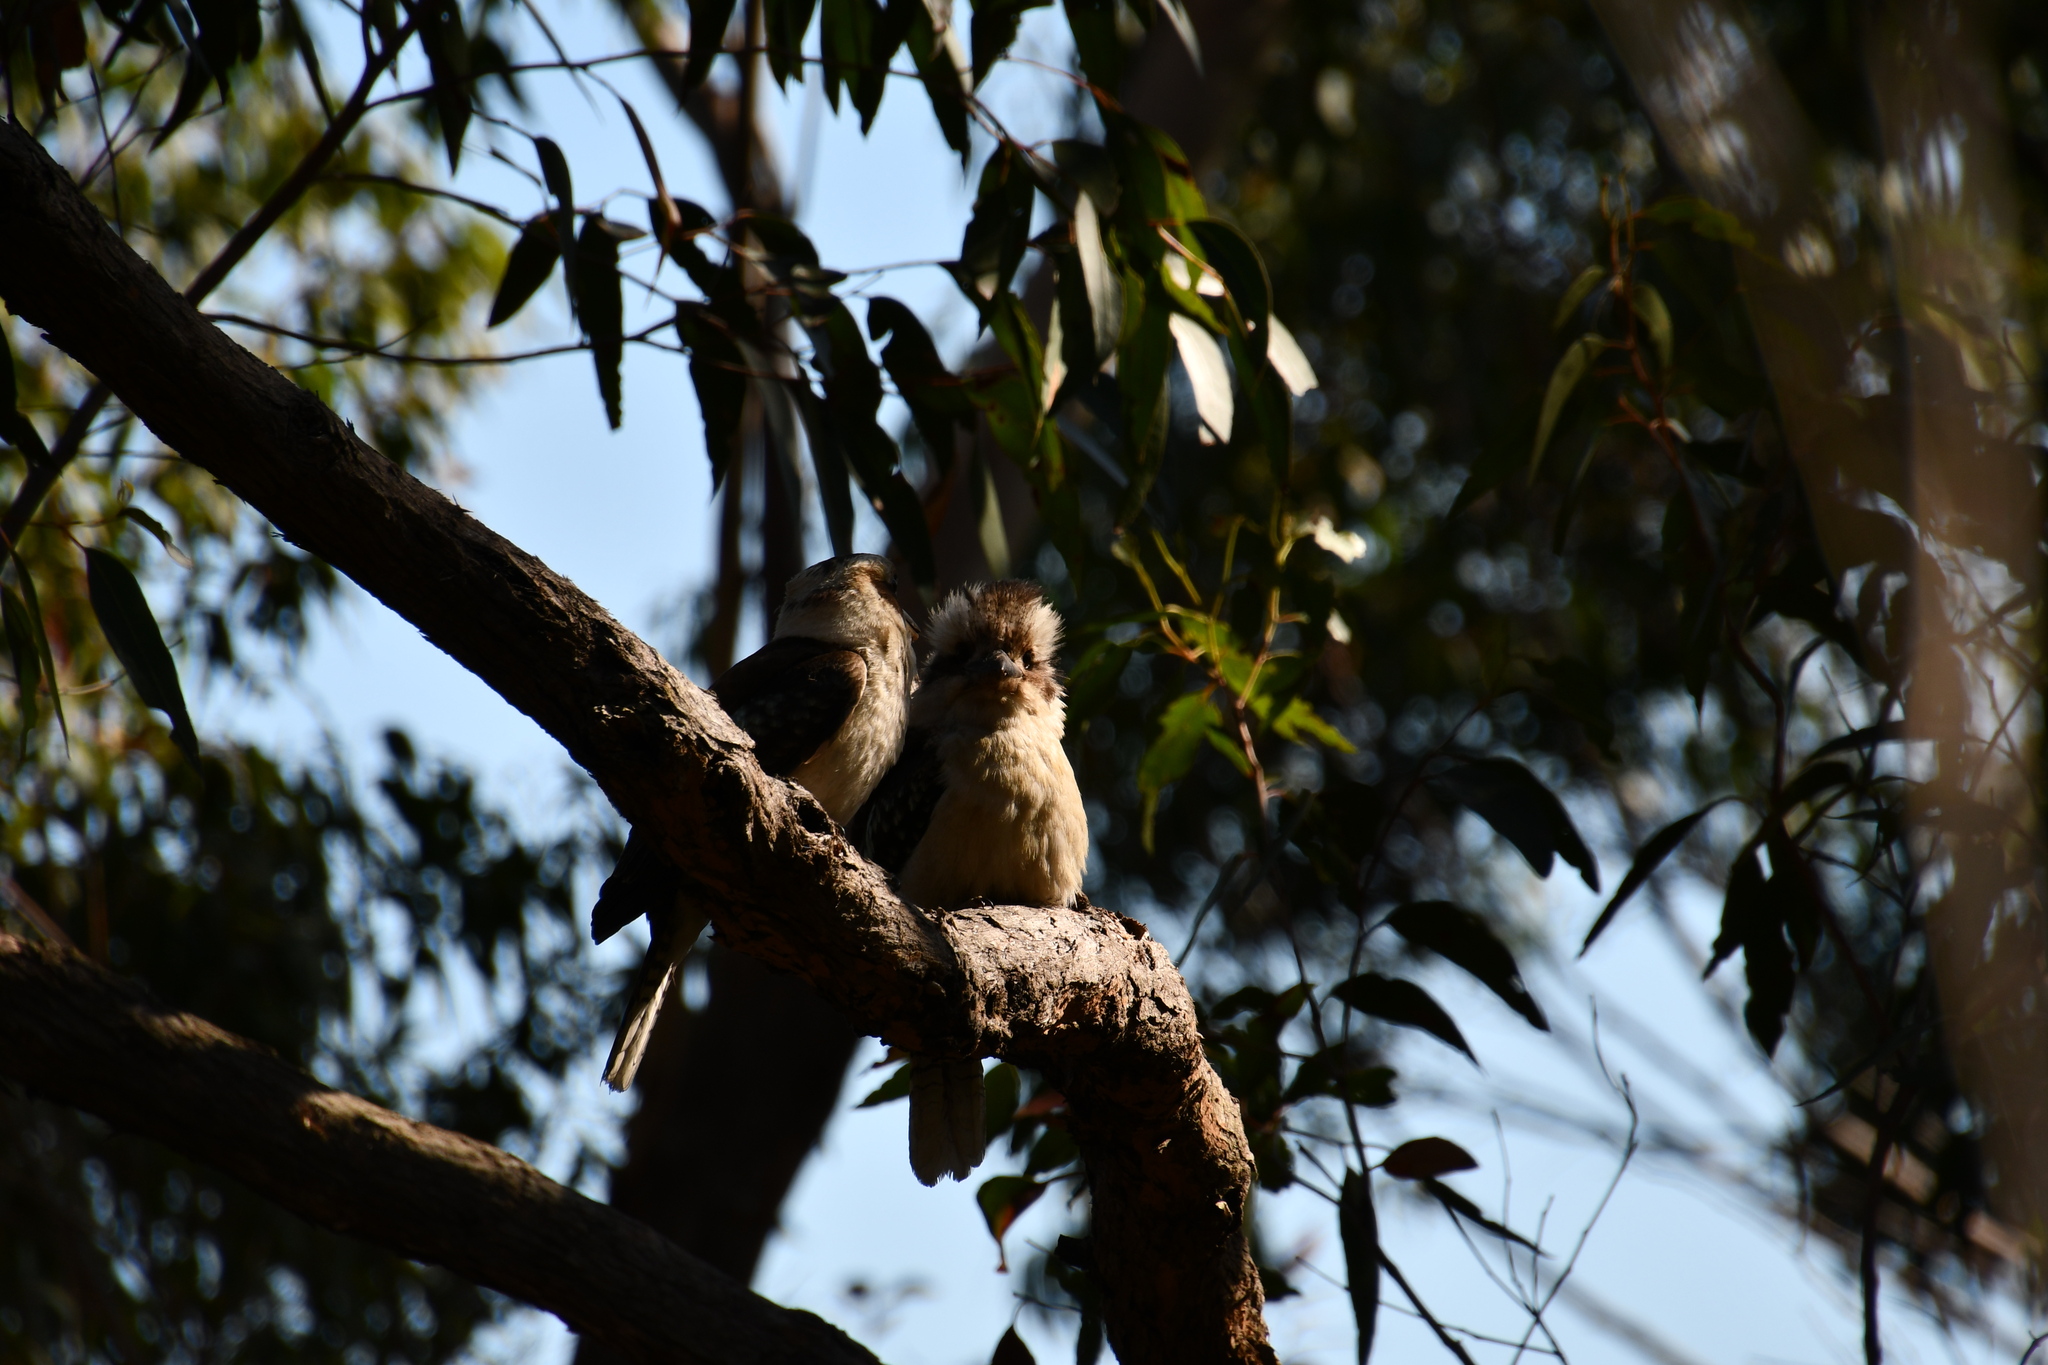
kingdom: Animalia
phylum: Chordata
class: Aves
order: Coraciiformes
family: Alcedinidae
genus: Dacelo
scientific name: Dacelo novaeguineae
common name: Laughing kookaburra
